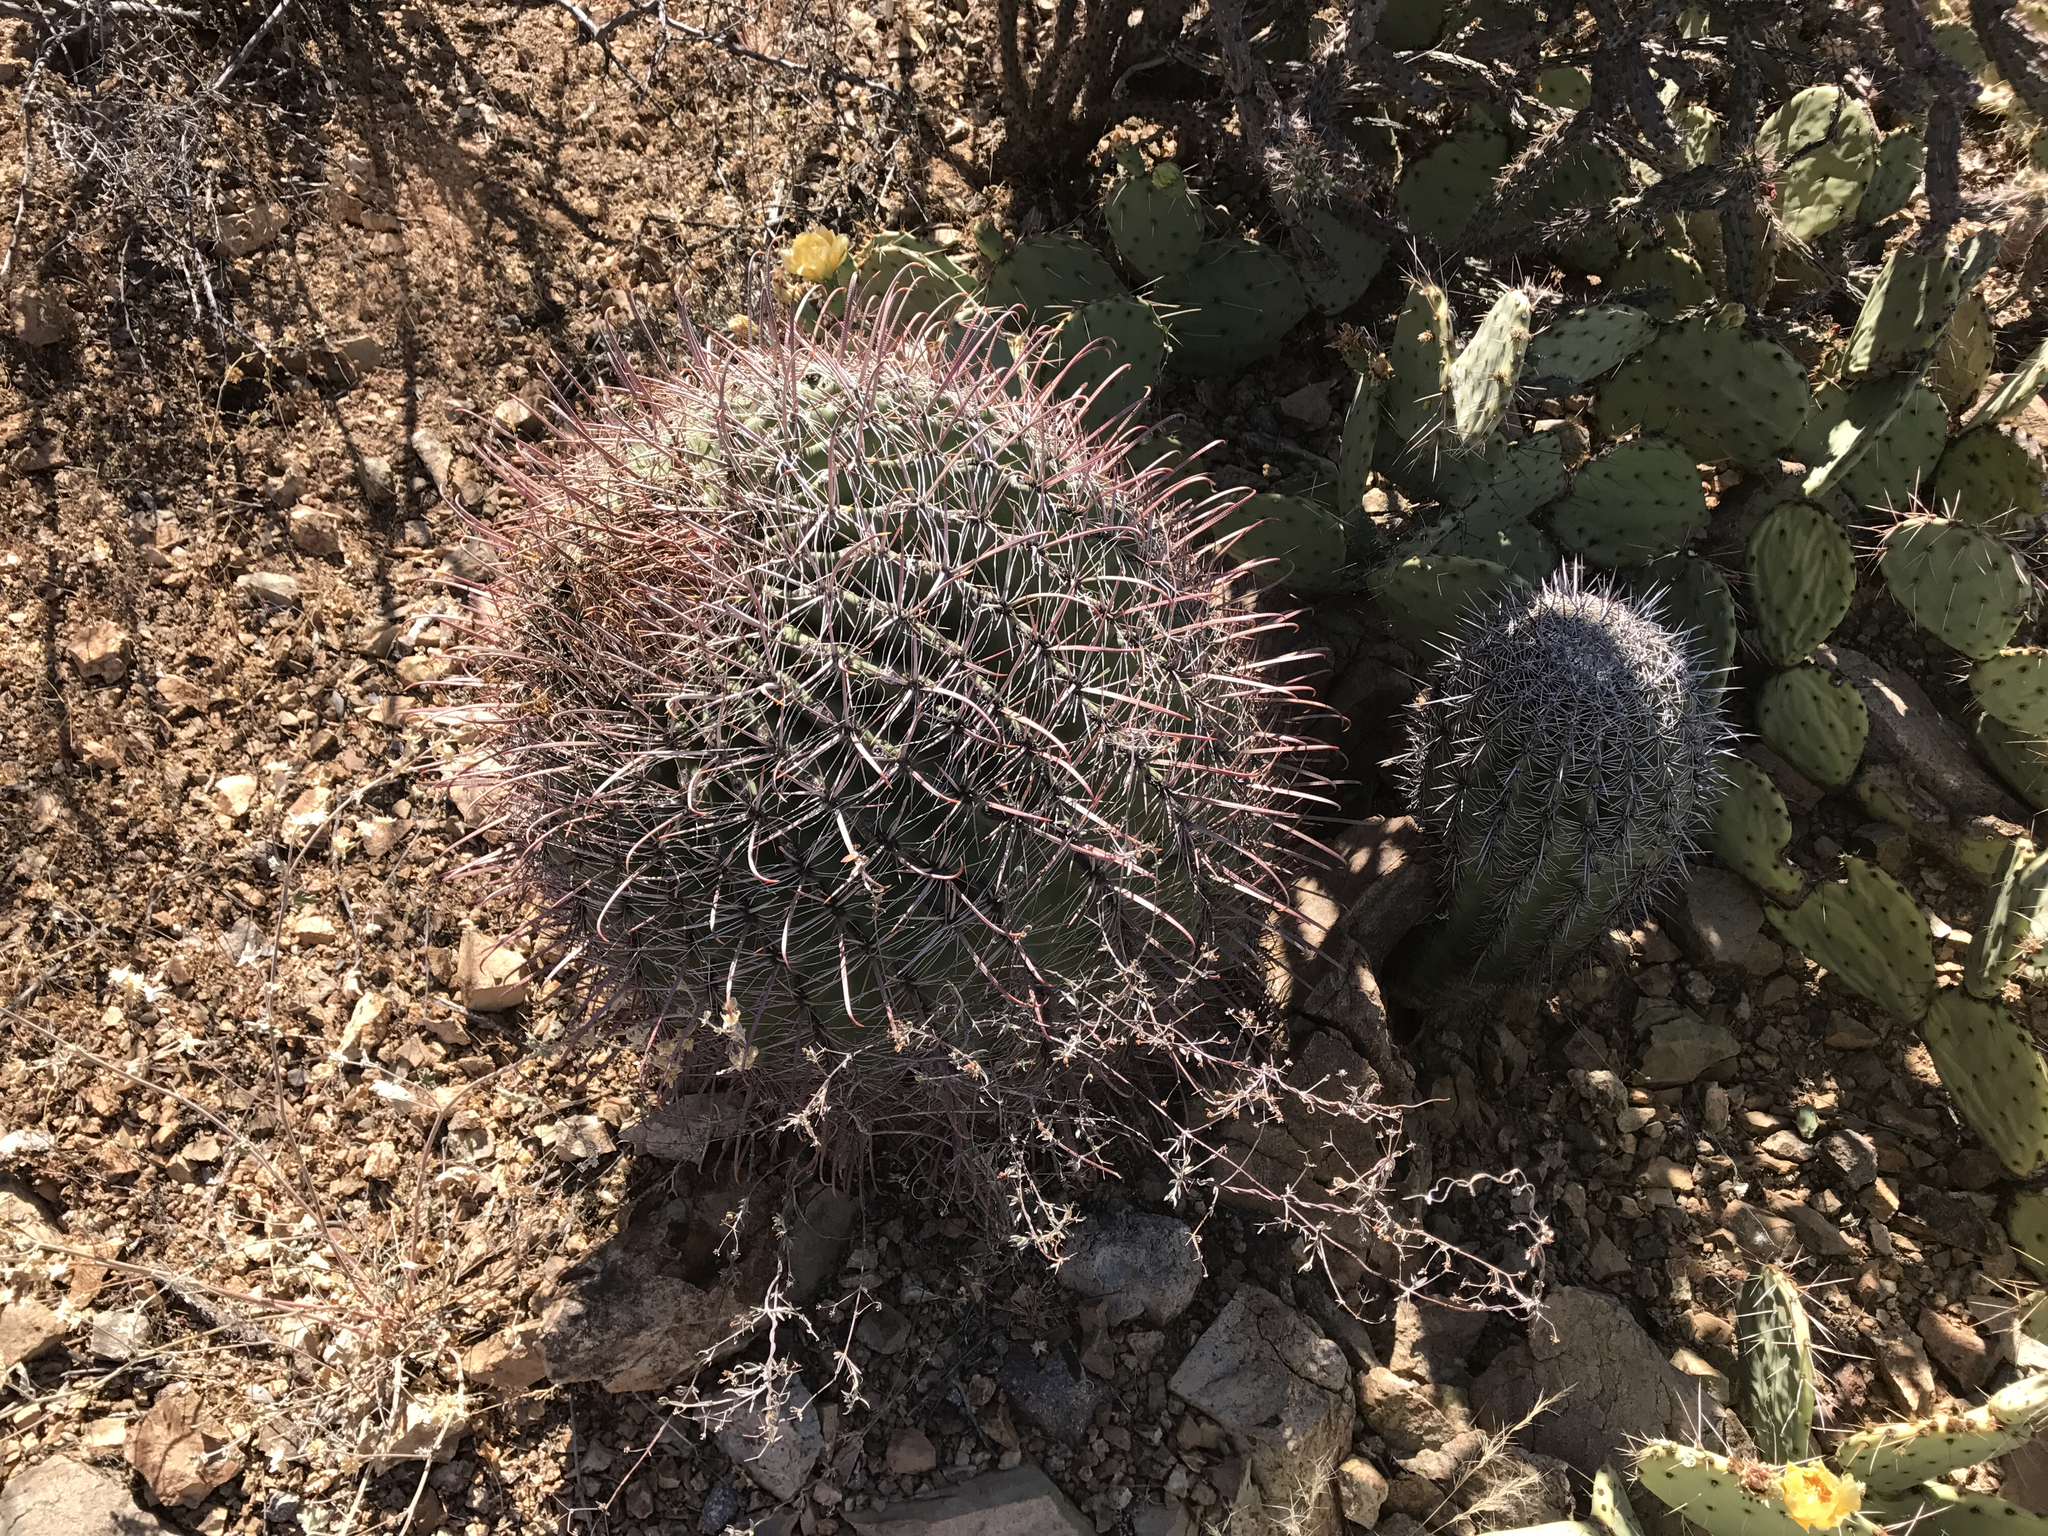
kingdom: Plantae
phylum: Tracheophyta
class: Magnoliopsida
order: Caryophyllales
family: Cactaceae
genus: Ferocactus
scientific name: Ferocactus wislizeni
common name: Candy barrel cactus
